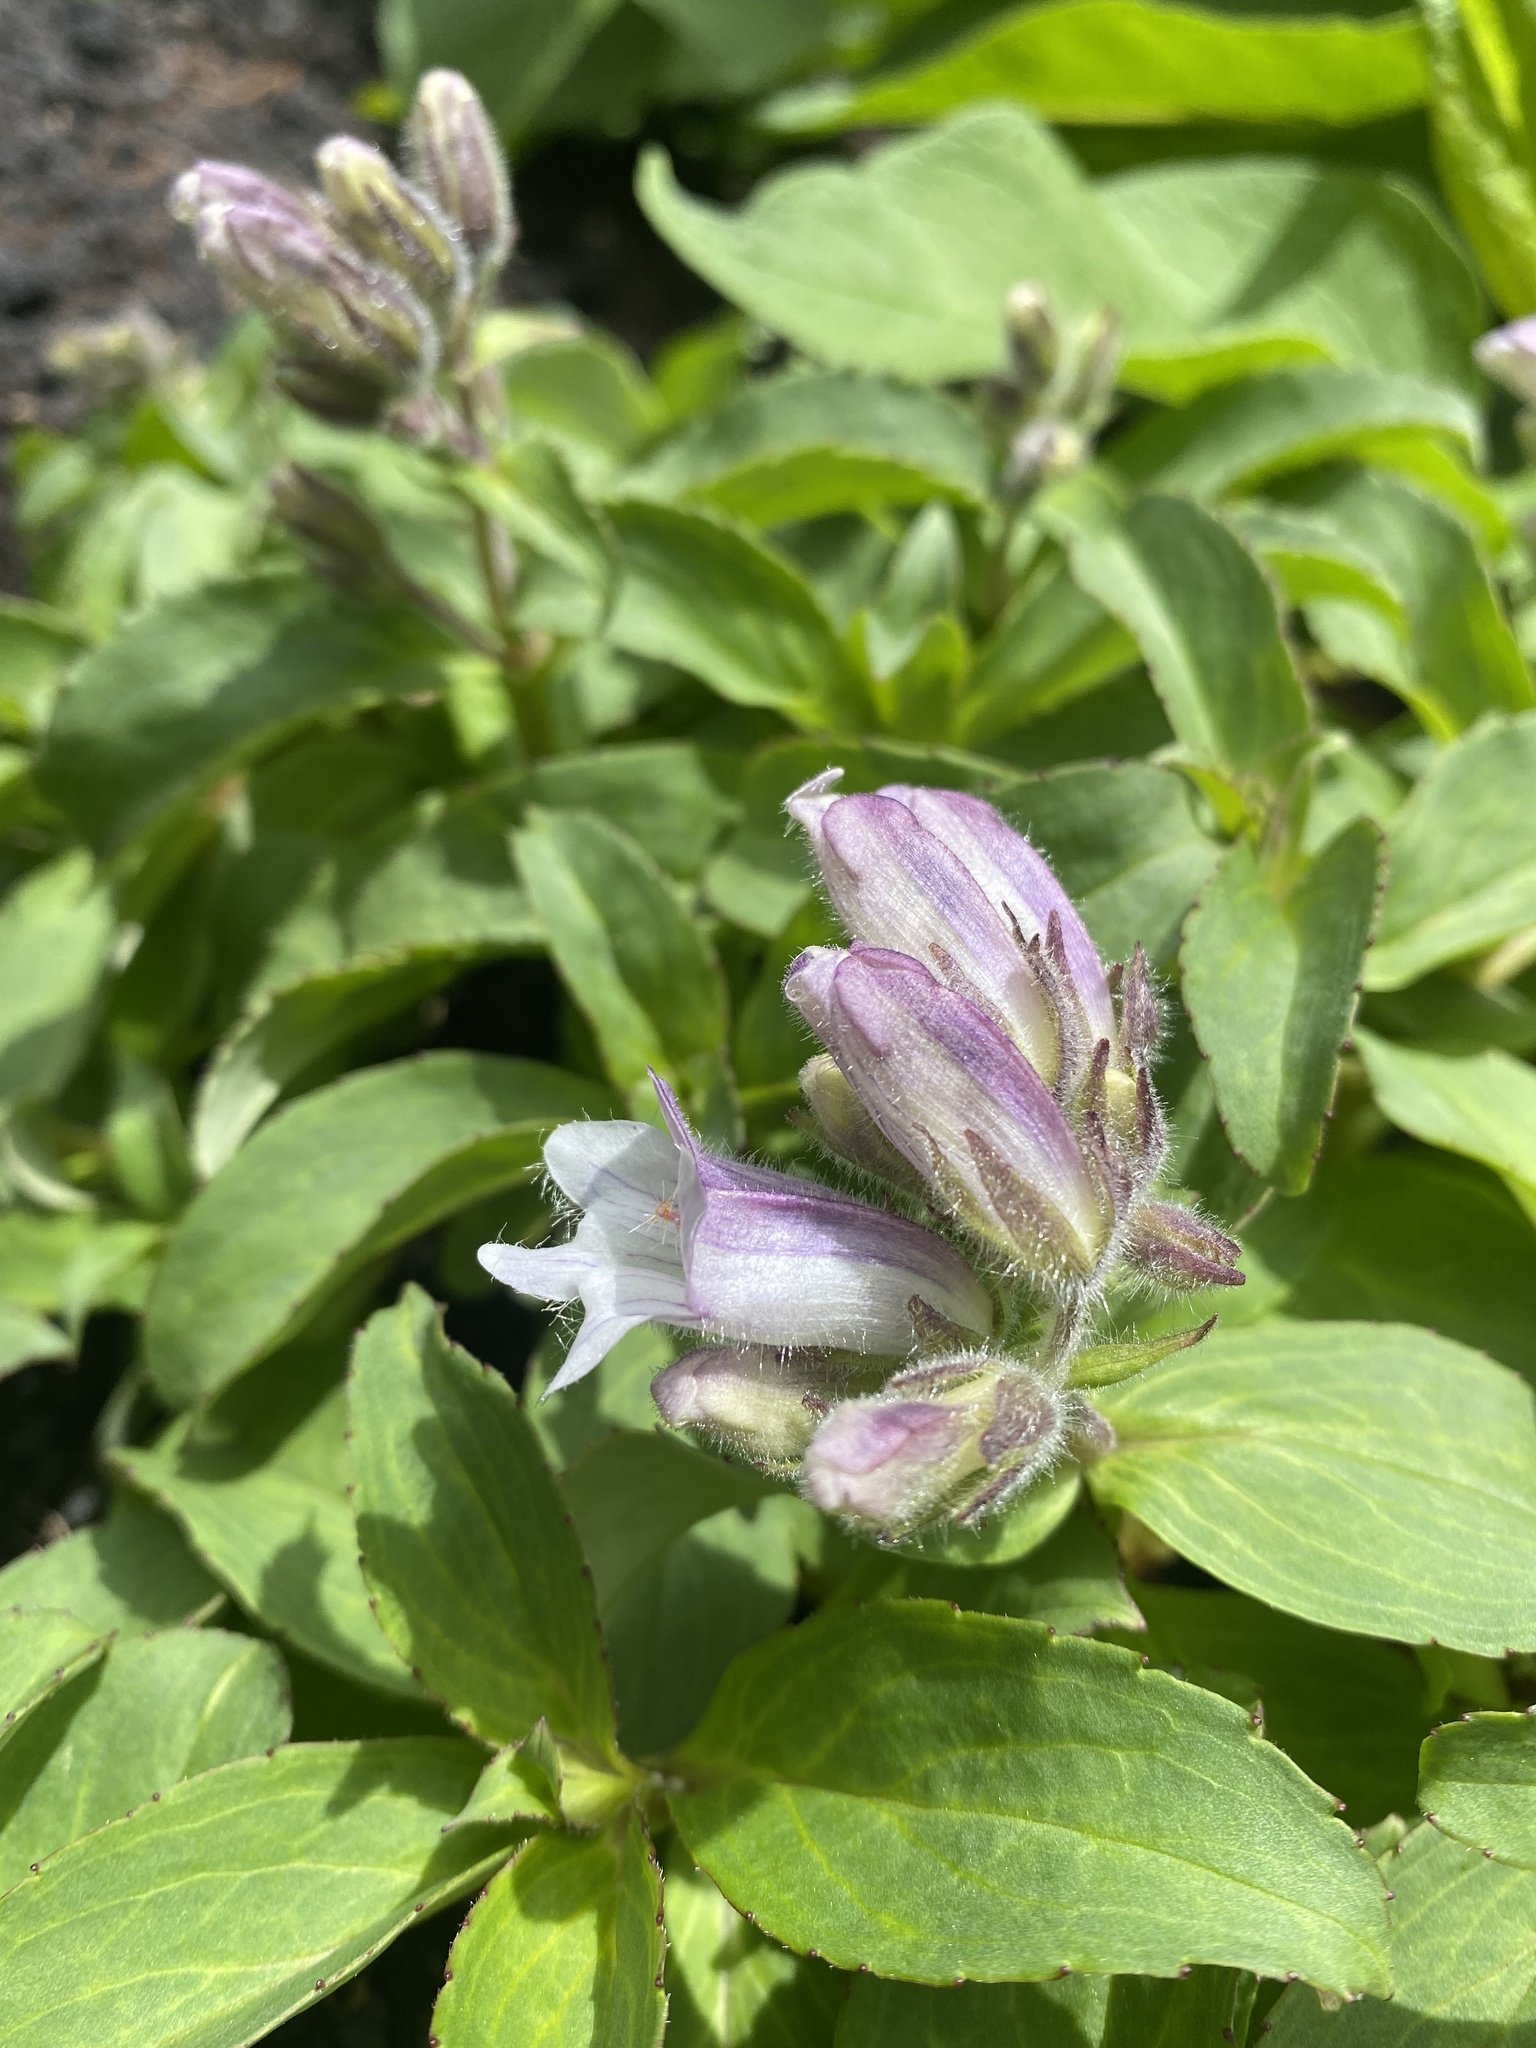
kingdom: Plantae
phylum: Tracheophyta
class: Magnoliopsida
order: Lamiales
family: Plantaginaceae
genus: Pennellianthus
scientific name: Pennellianthus frutescens
